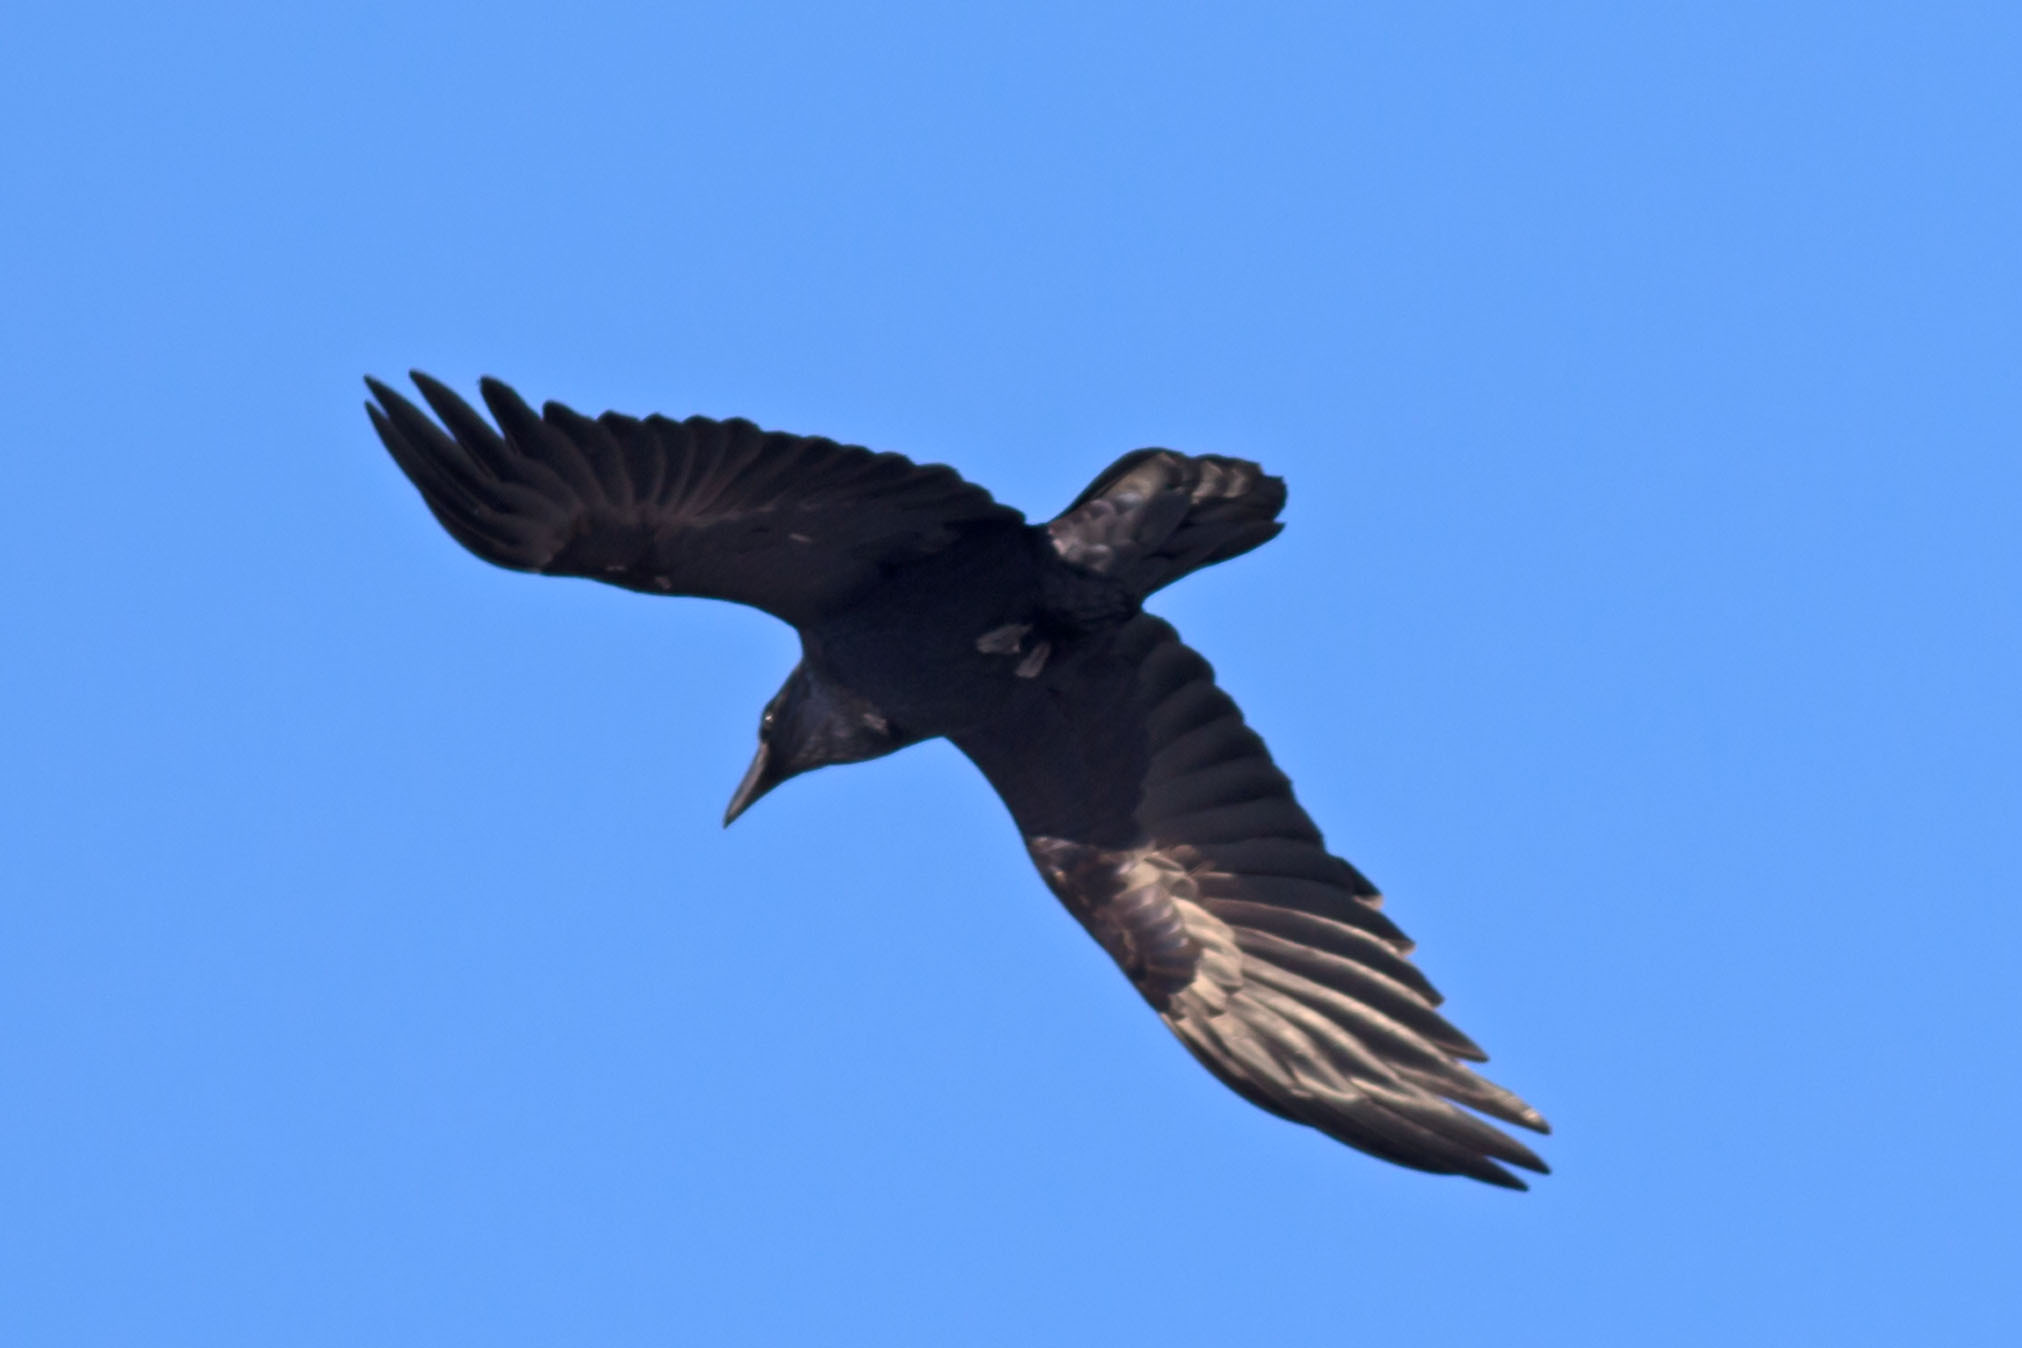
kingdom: Animalia
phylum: Chordata
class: Aves
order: Passeriformes
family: Corvidae
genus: Corvus
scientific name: Corvus corax
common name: Common raven
